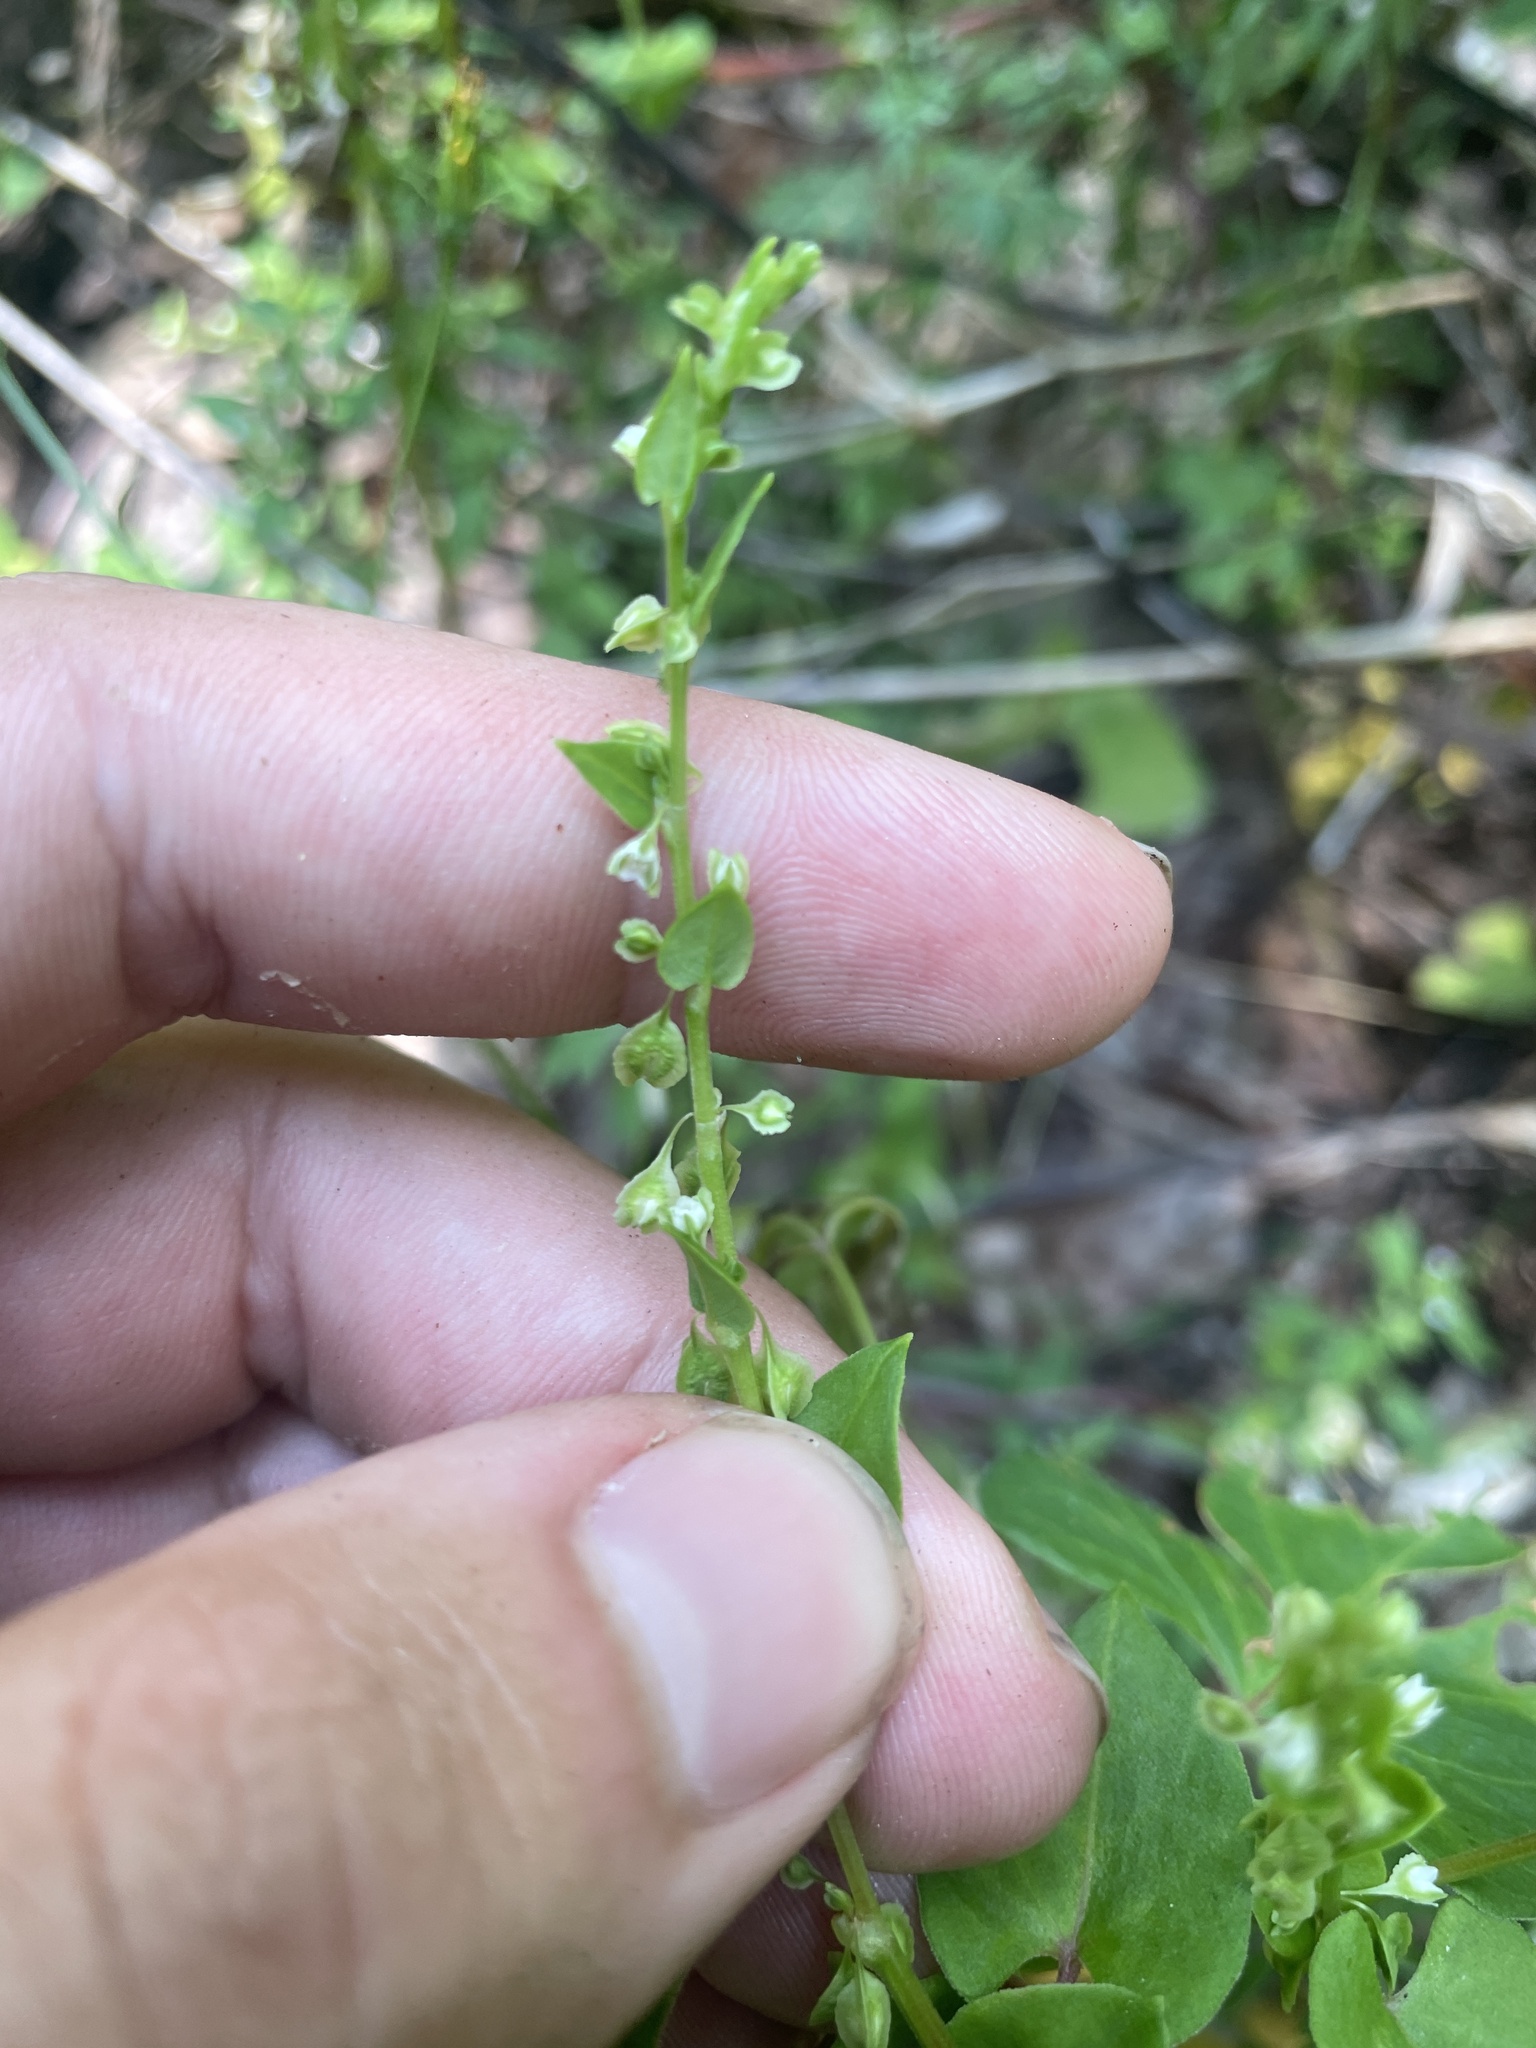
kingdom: Plantae
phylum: Tracheophyta
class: Magnoliopsida
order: Caryophyllales
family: Polygonaceae
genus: Fallopia
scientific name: Fallopia scandens
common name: Climbing false buckwheat
